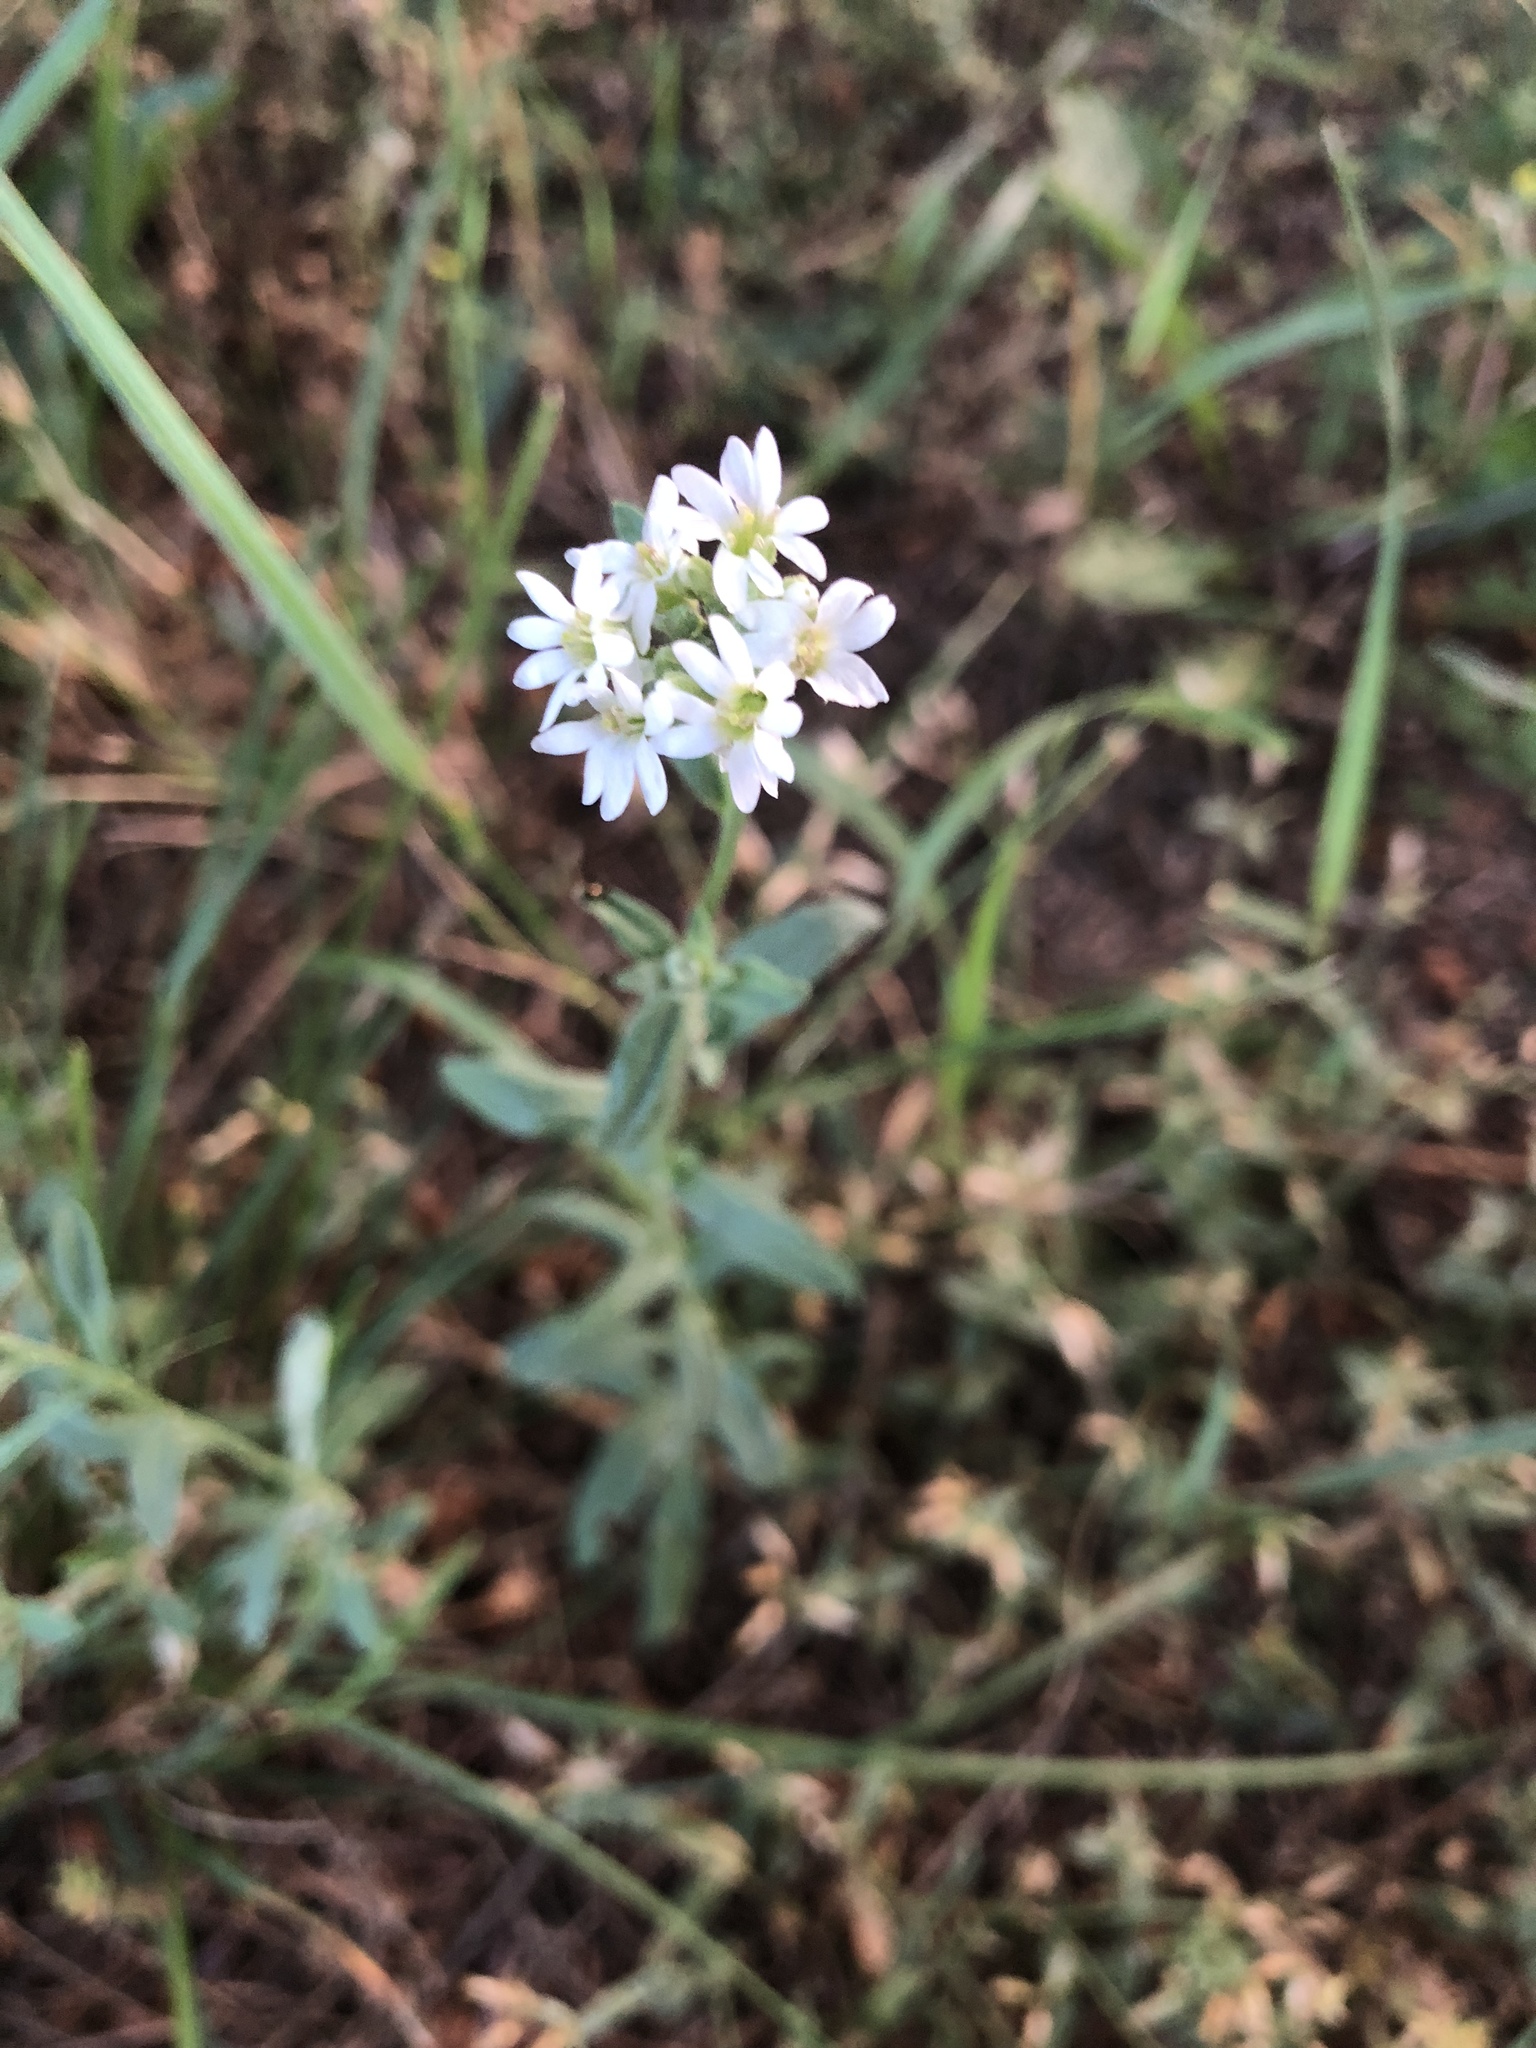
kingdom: Plantae
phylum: Tracheophyta
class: Magnoliopsida
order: Brassicales
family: Brassicaceae
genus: Berteroa
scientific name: Berteroa incana
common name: Hoary alison
